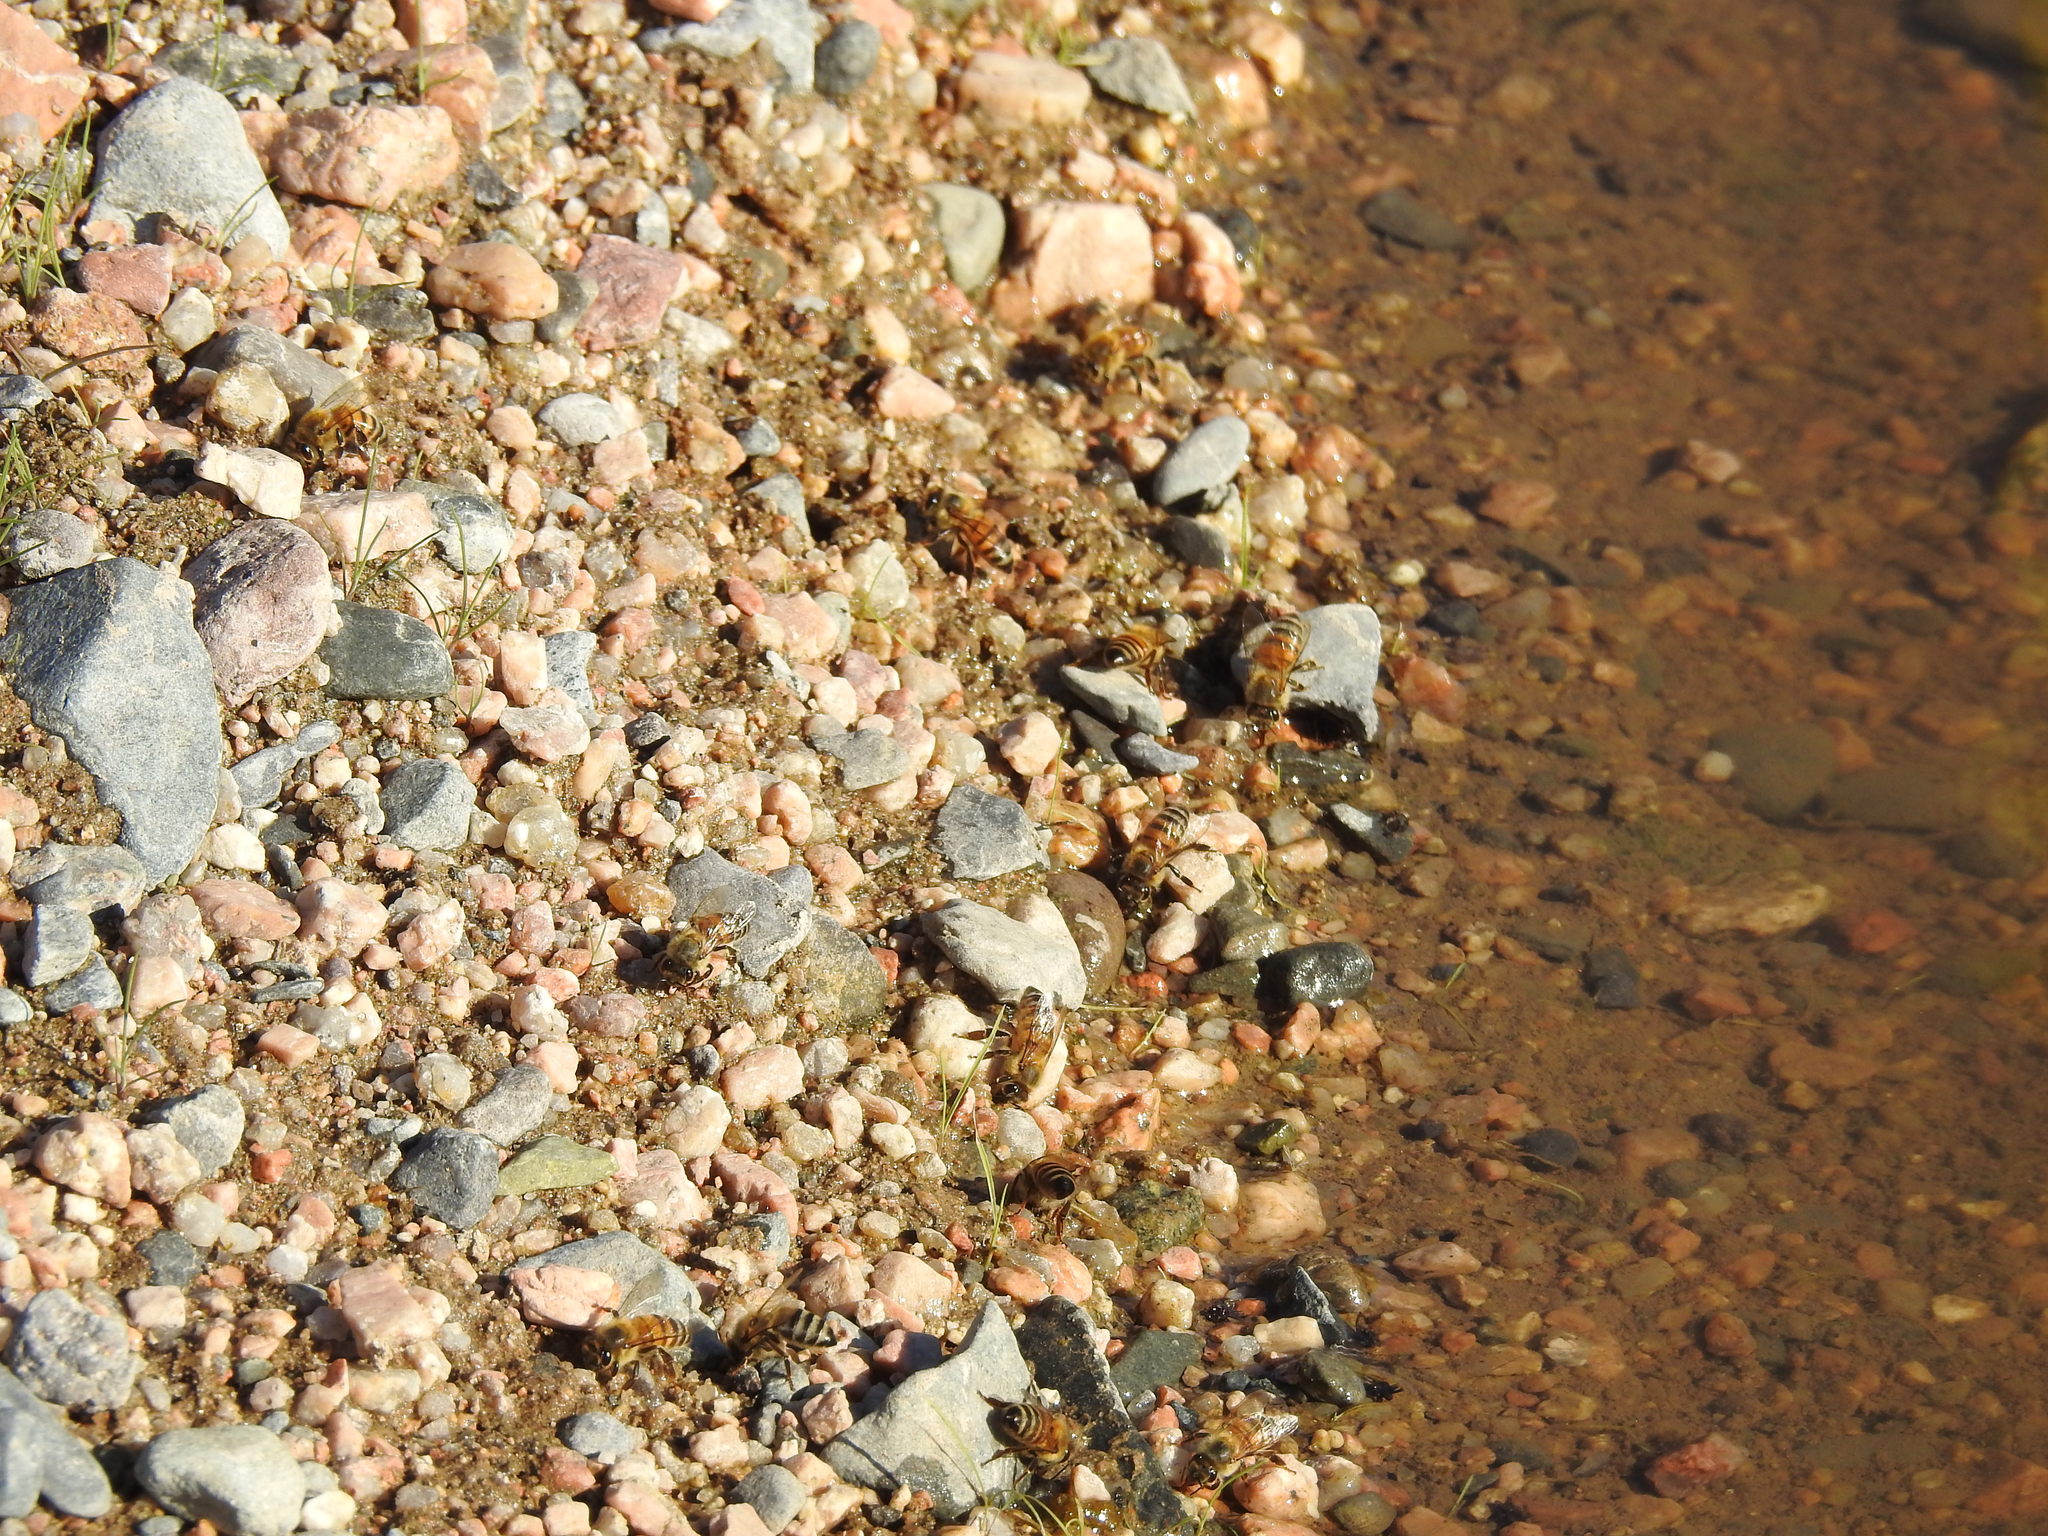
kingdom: Animalia
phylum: Arthropoda
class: Insecta
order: Hymenoptera
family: Apidae
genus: Apis
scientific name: Apis mellifera
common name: Honey bee
